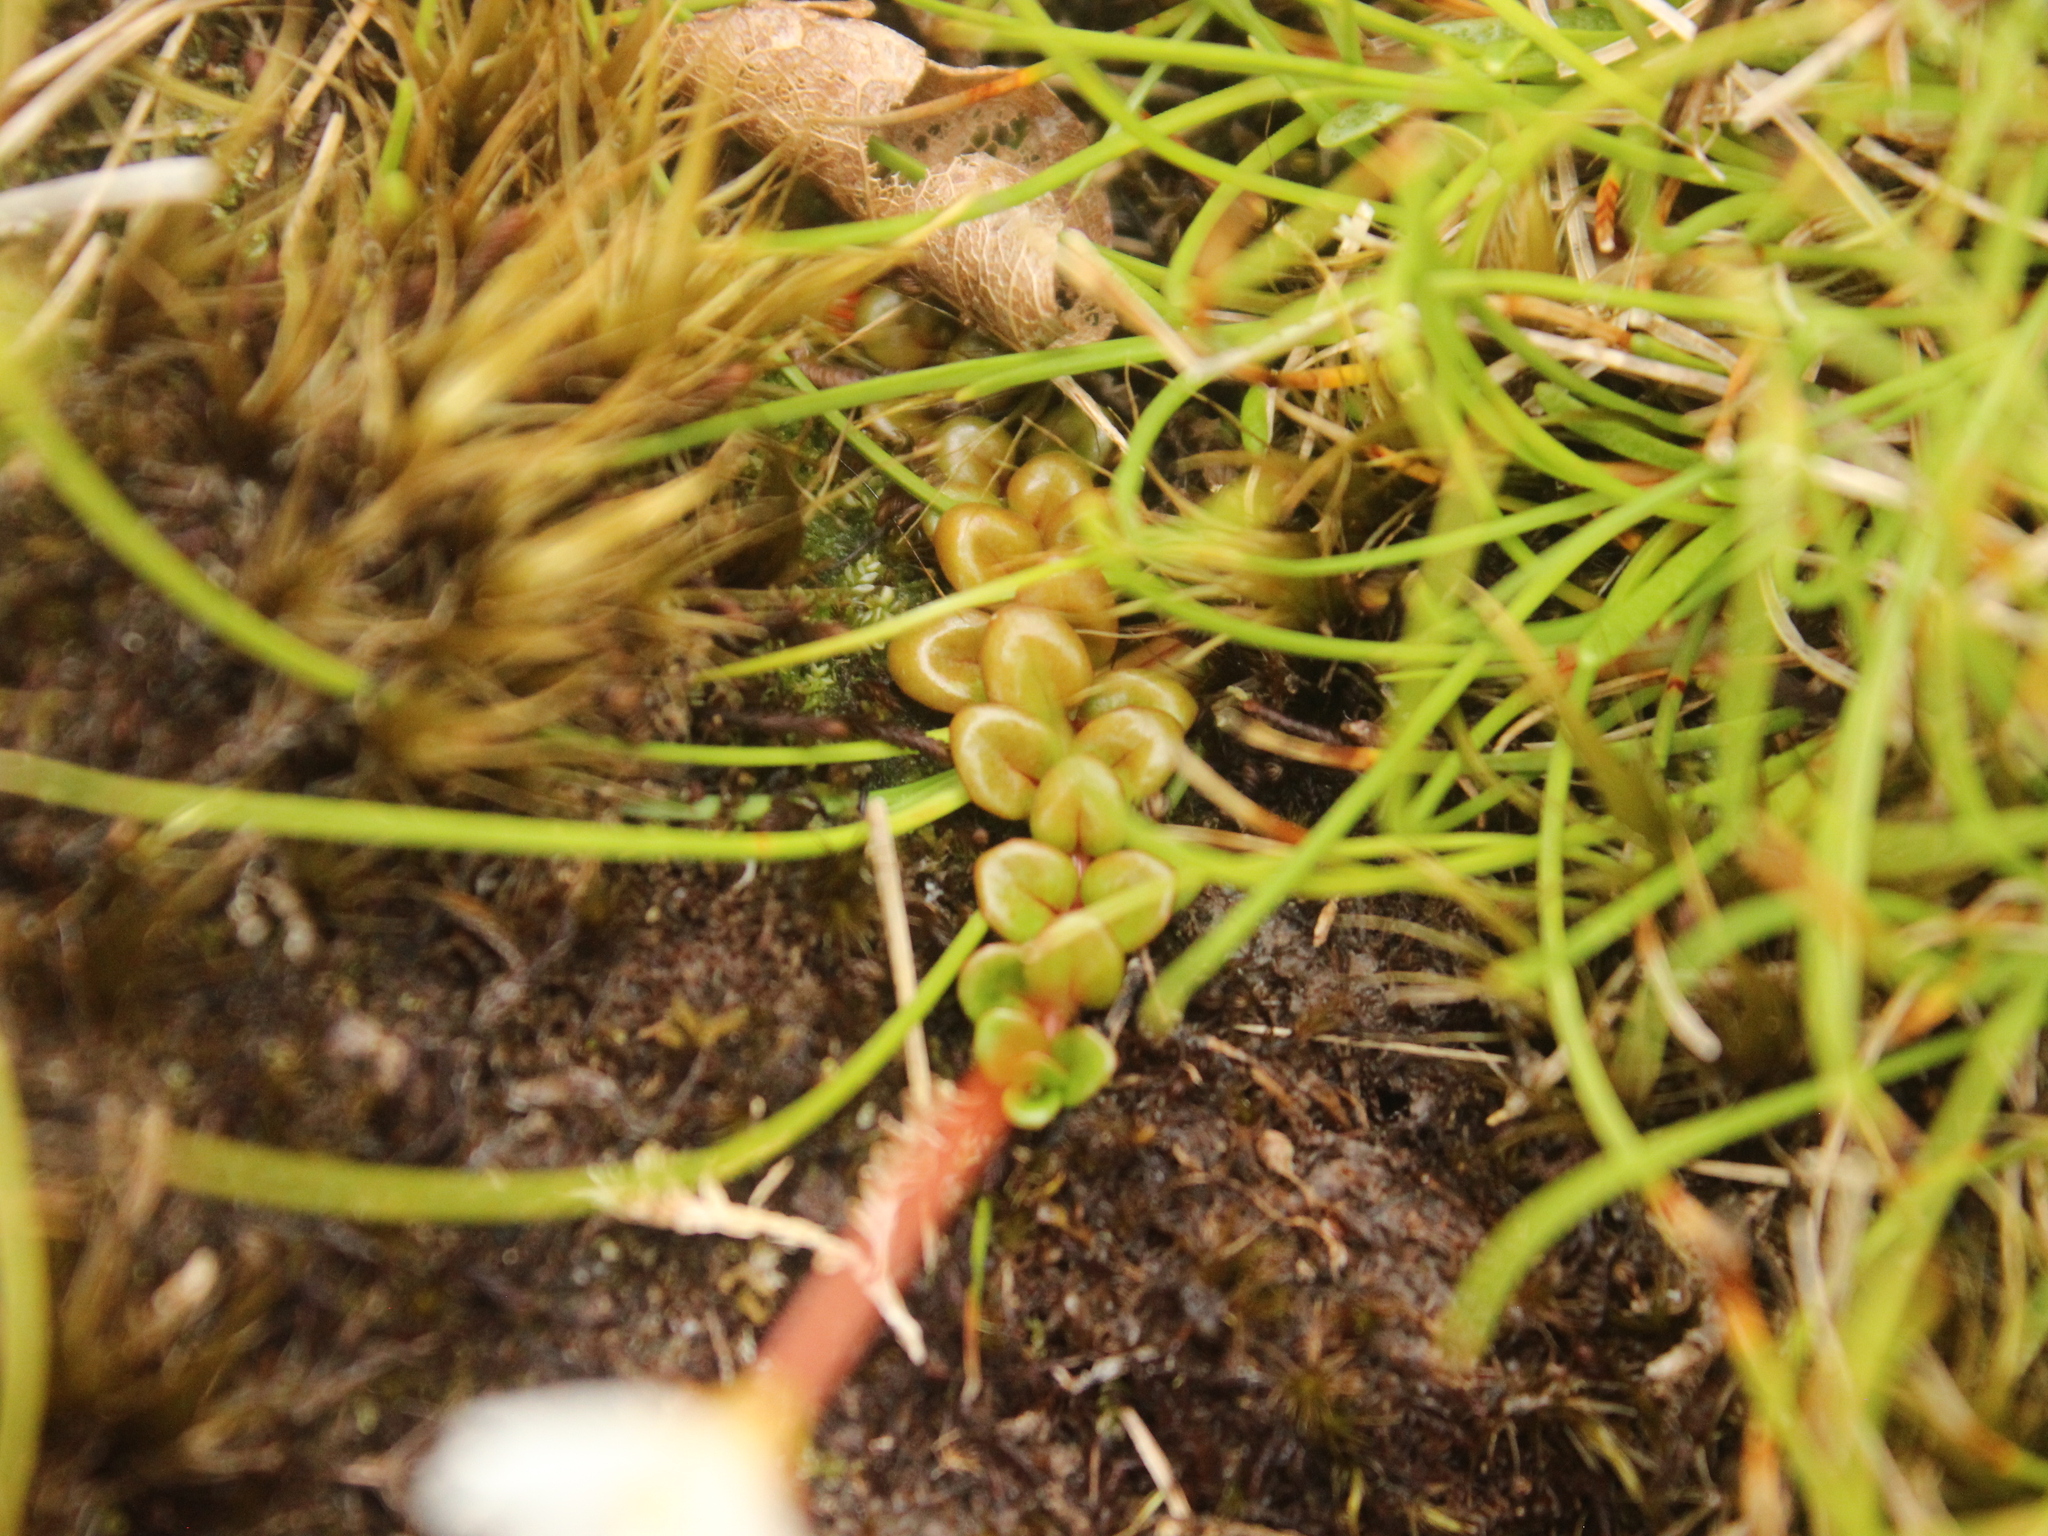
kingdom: Plantae
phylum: Tracheophyta
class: Magnoliopsida
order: Myrtales
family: Onagraceae
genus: Epilobium
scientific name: Epilobium pernitens
